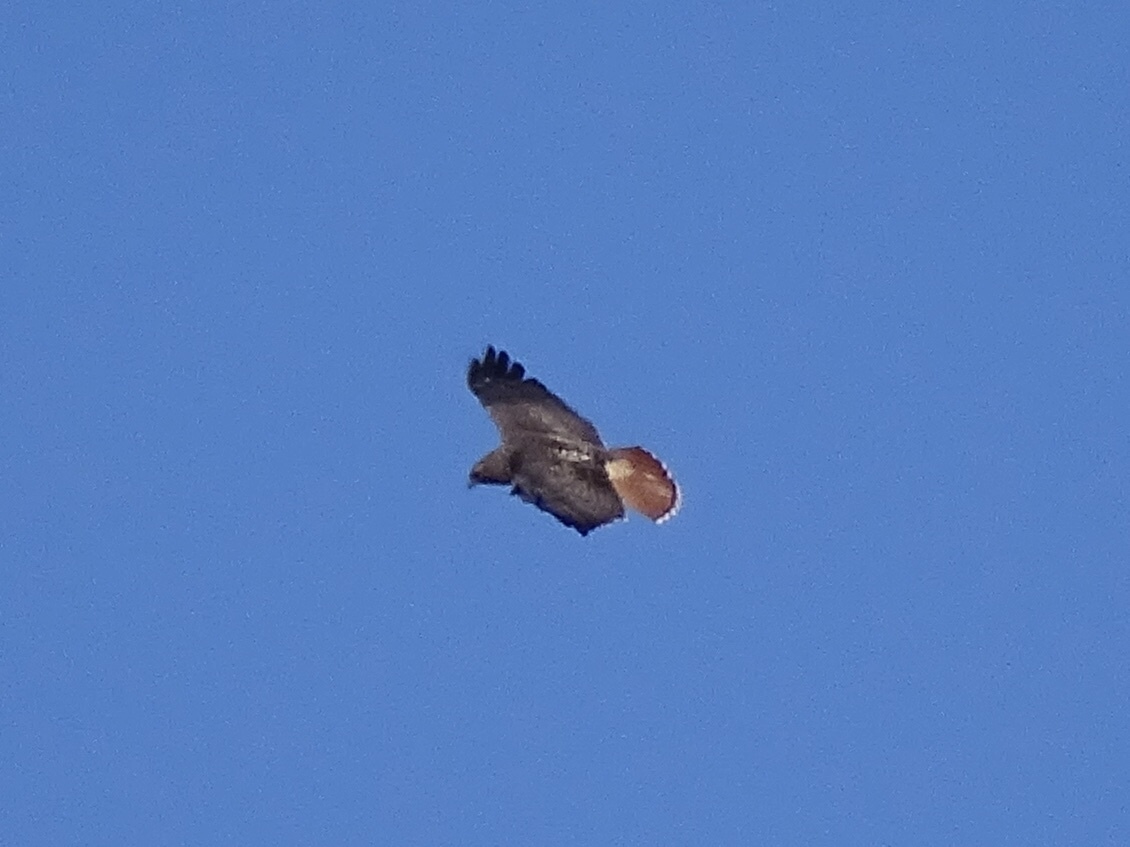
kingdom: Animalia
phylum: Chordata
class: Aves
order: Accipitriformes
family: Accipitridae
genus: Buteo
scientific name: Buteo jamaicensis
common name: Red-tailed hawk
